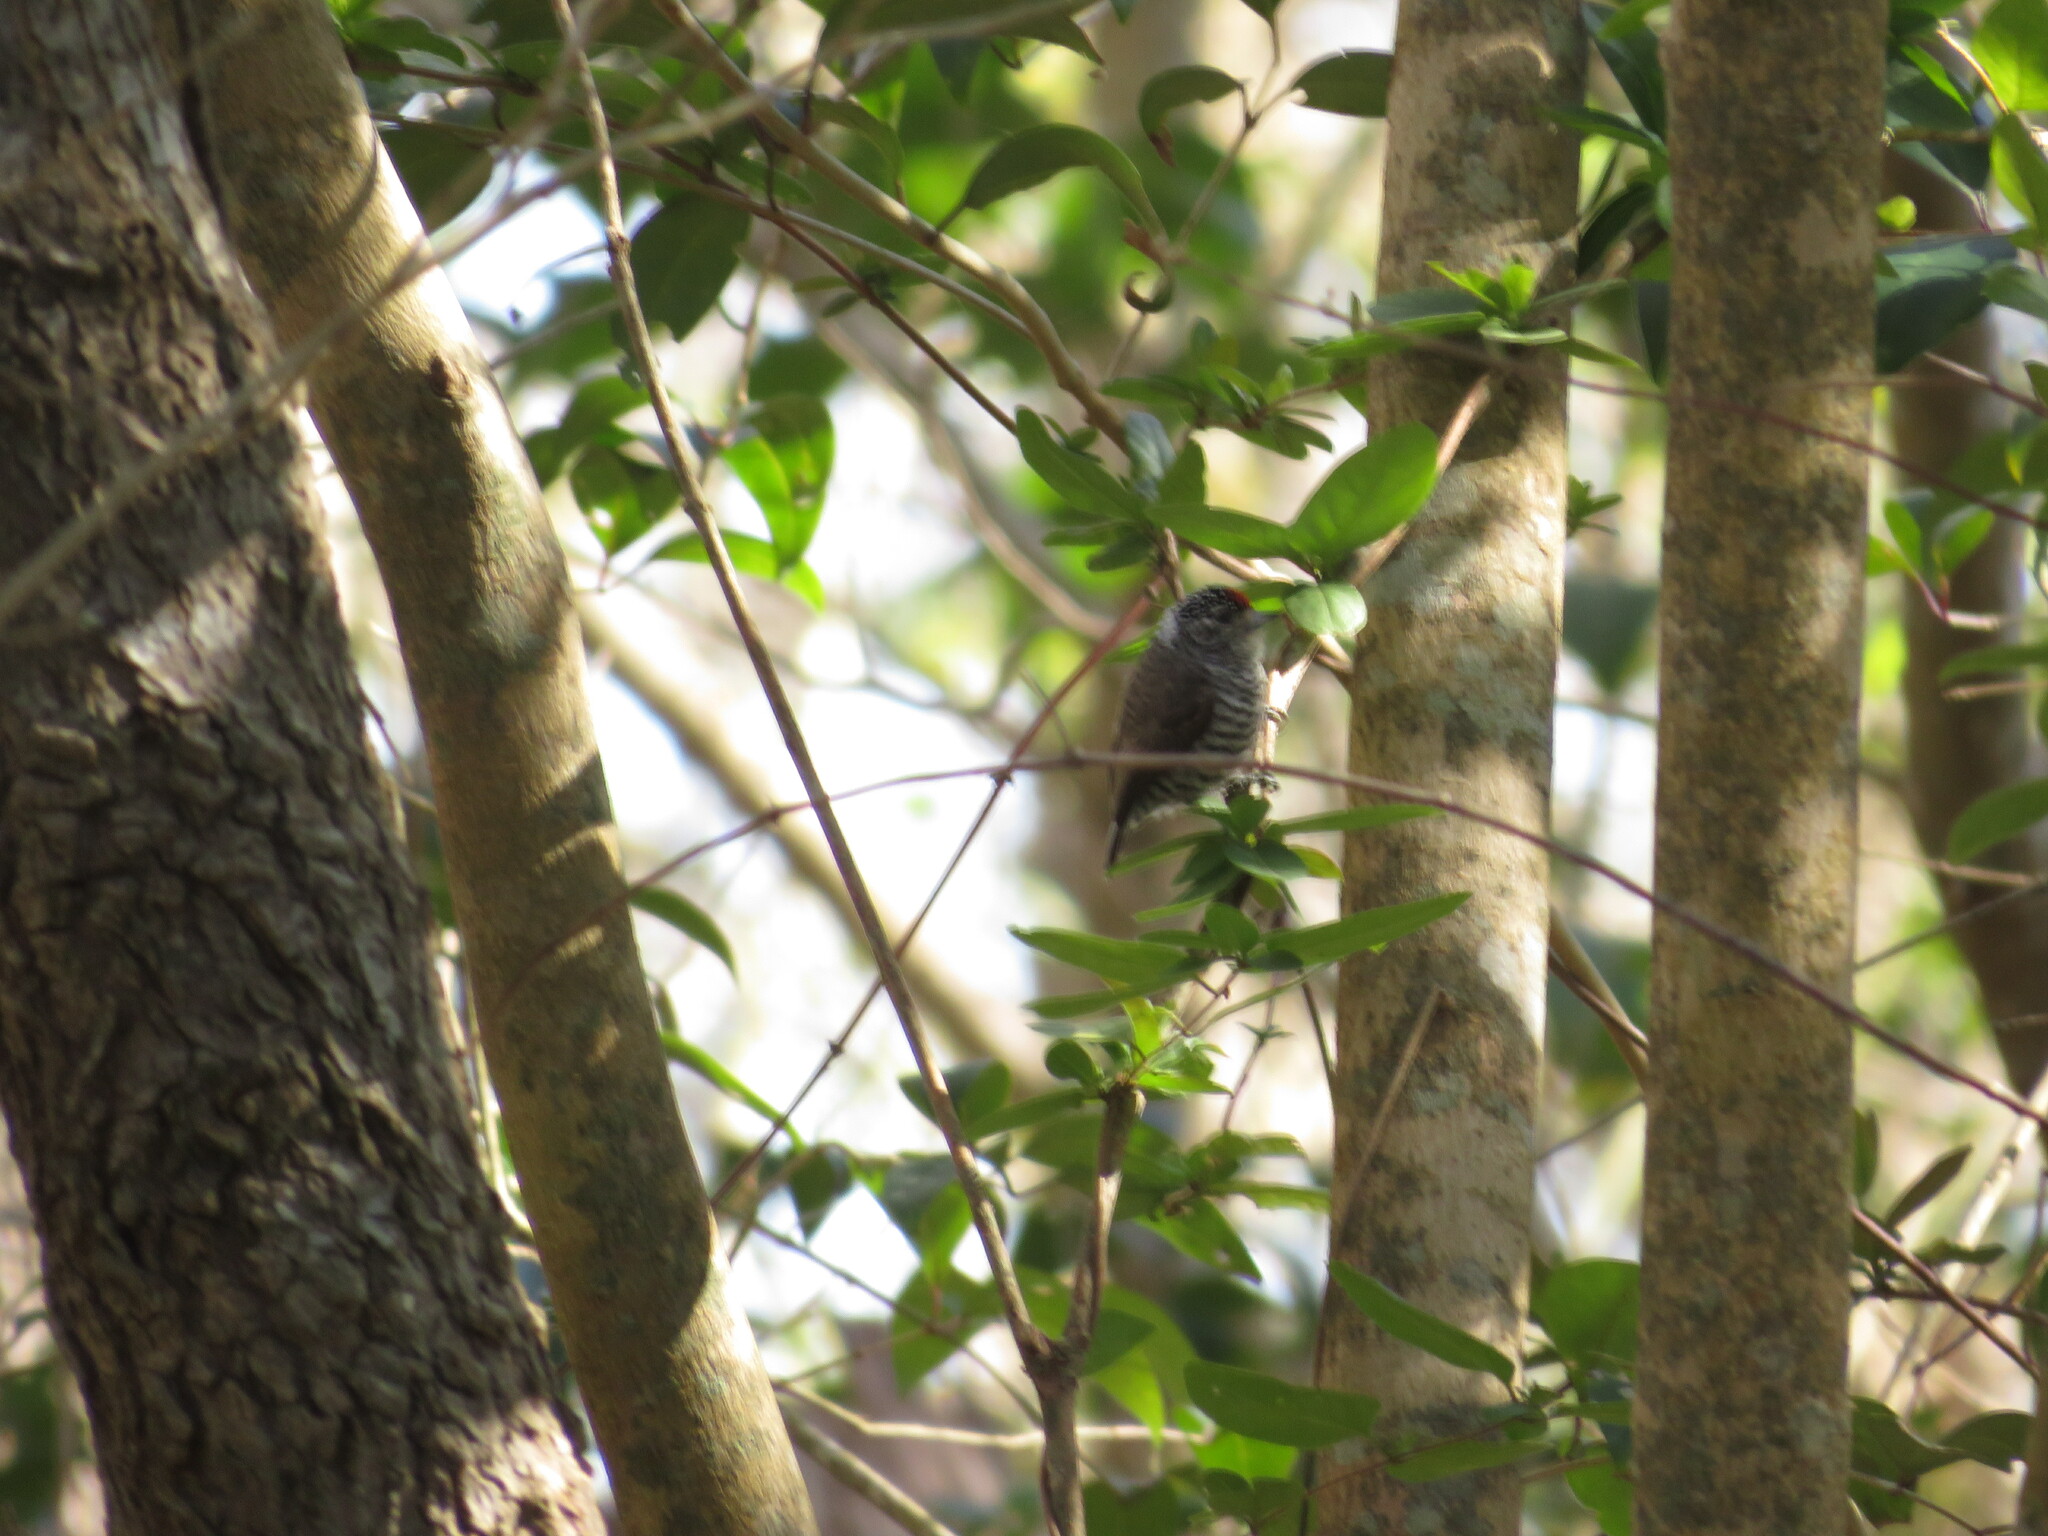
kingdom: Animalia
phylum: Chordata
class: Aves
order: Piciformes
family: Picidae
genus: Picumnus
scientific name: Picumnus cirratus
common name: White-barred piculet
